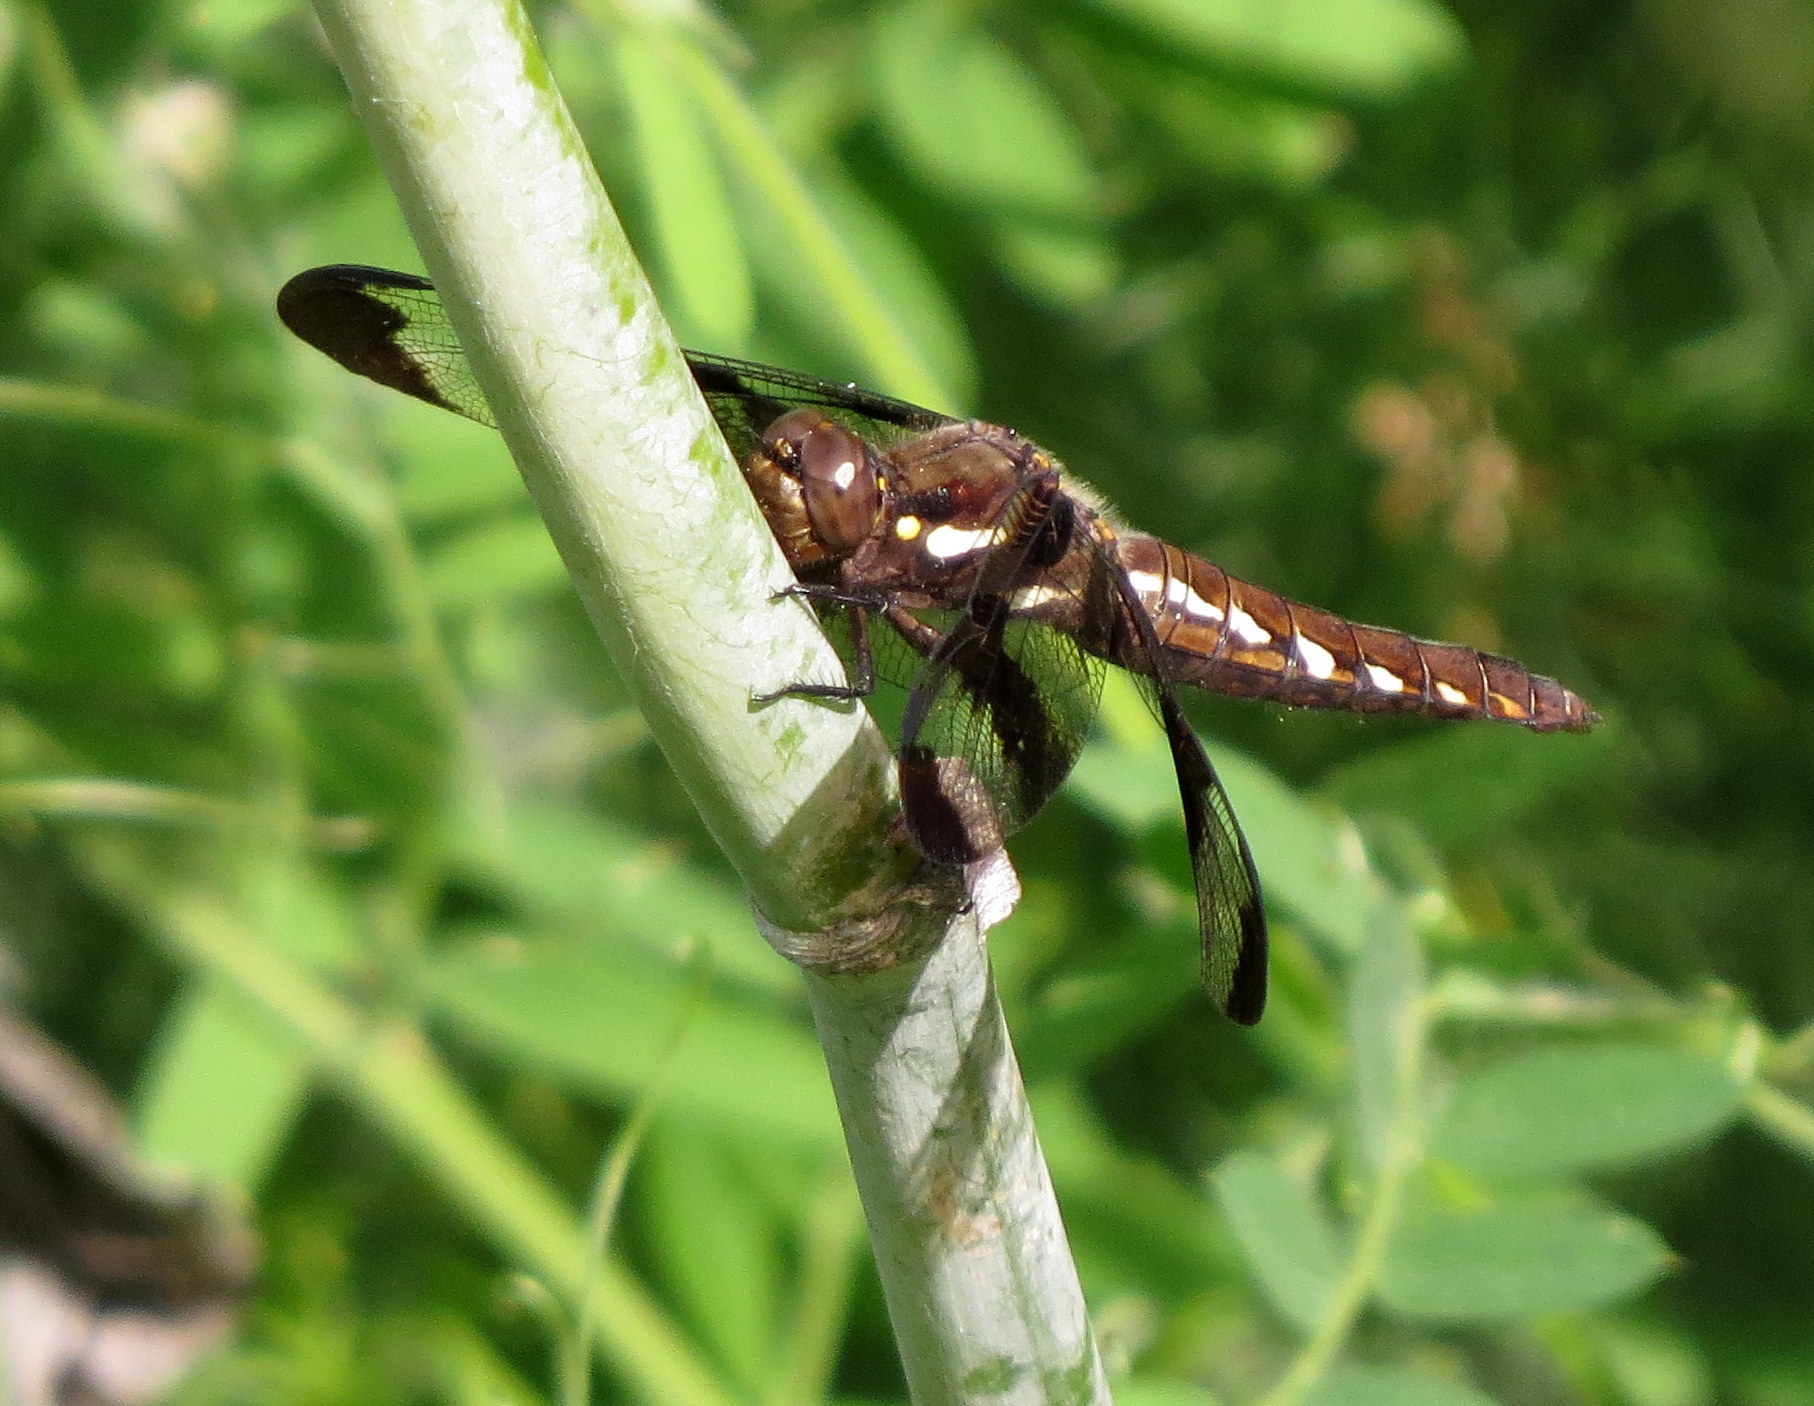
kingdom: Animalia
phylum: Arthropoda
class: Insecta
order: Odonata
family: Libellulidae
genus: Plathemis
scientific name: Plathemis lydia
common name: Common whitetail
